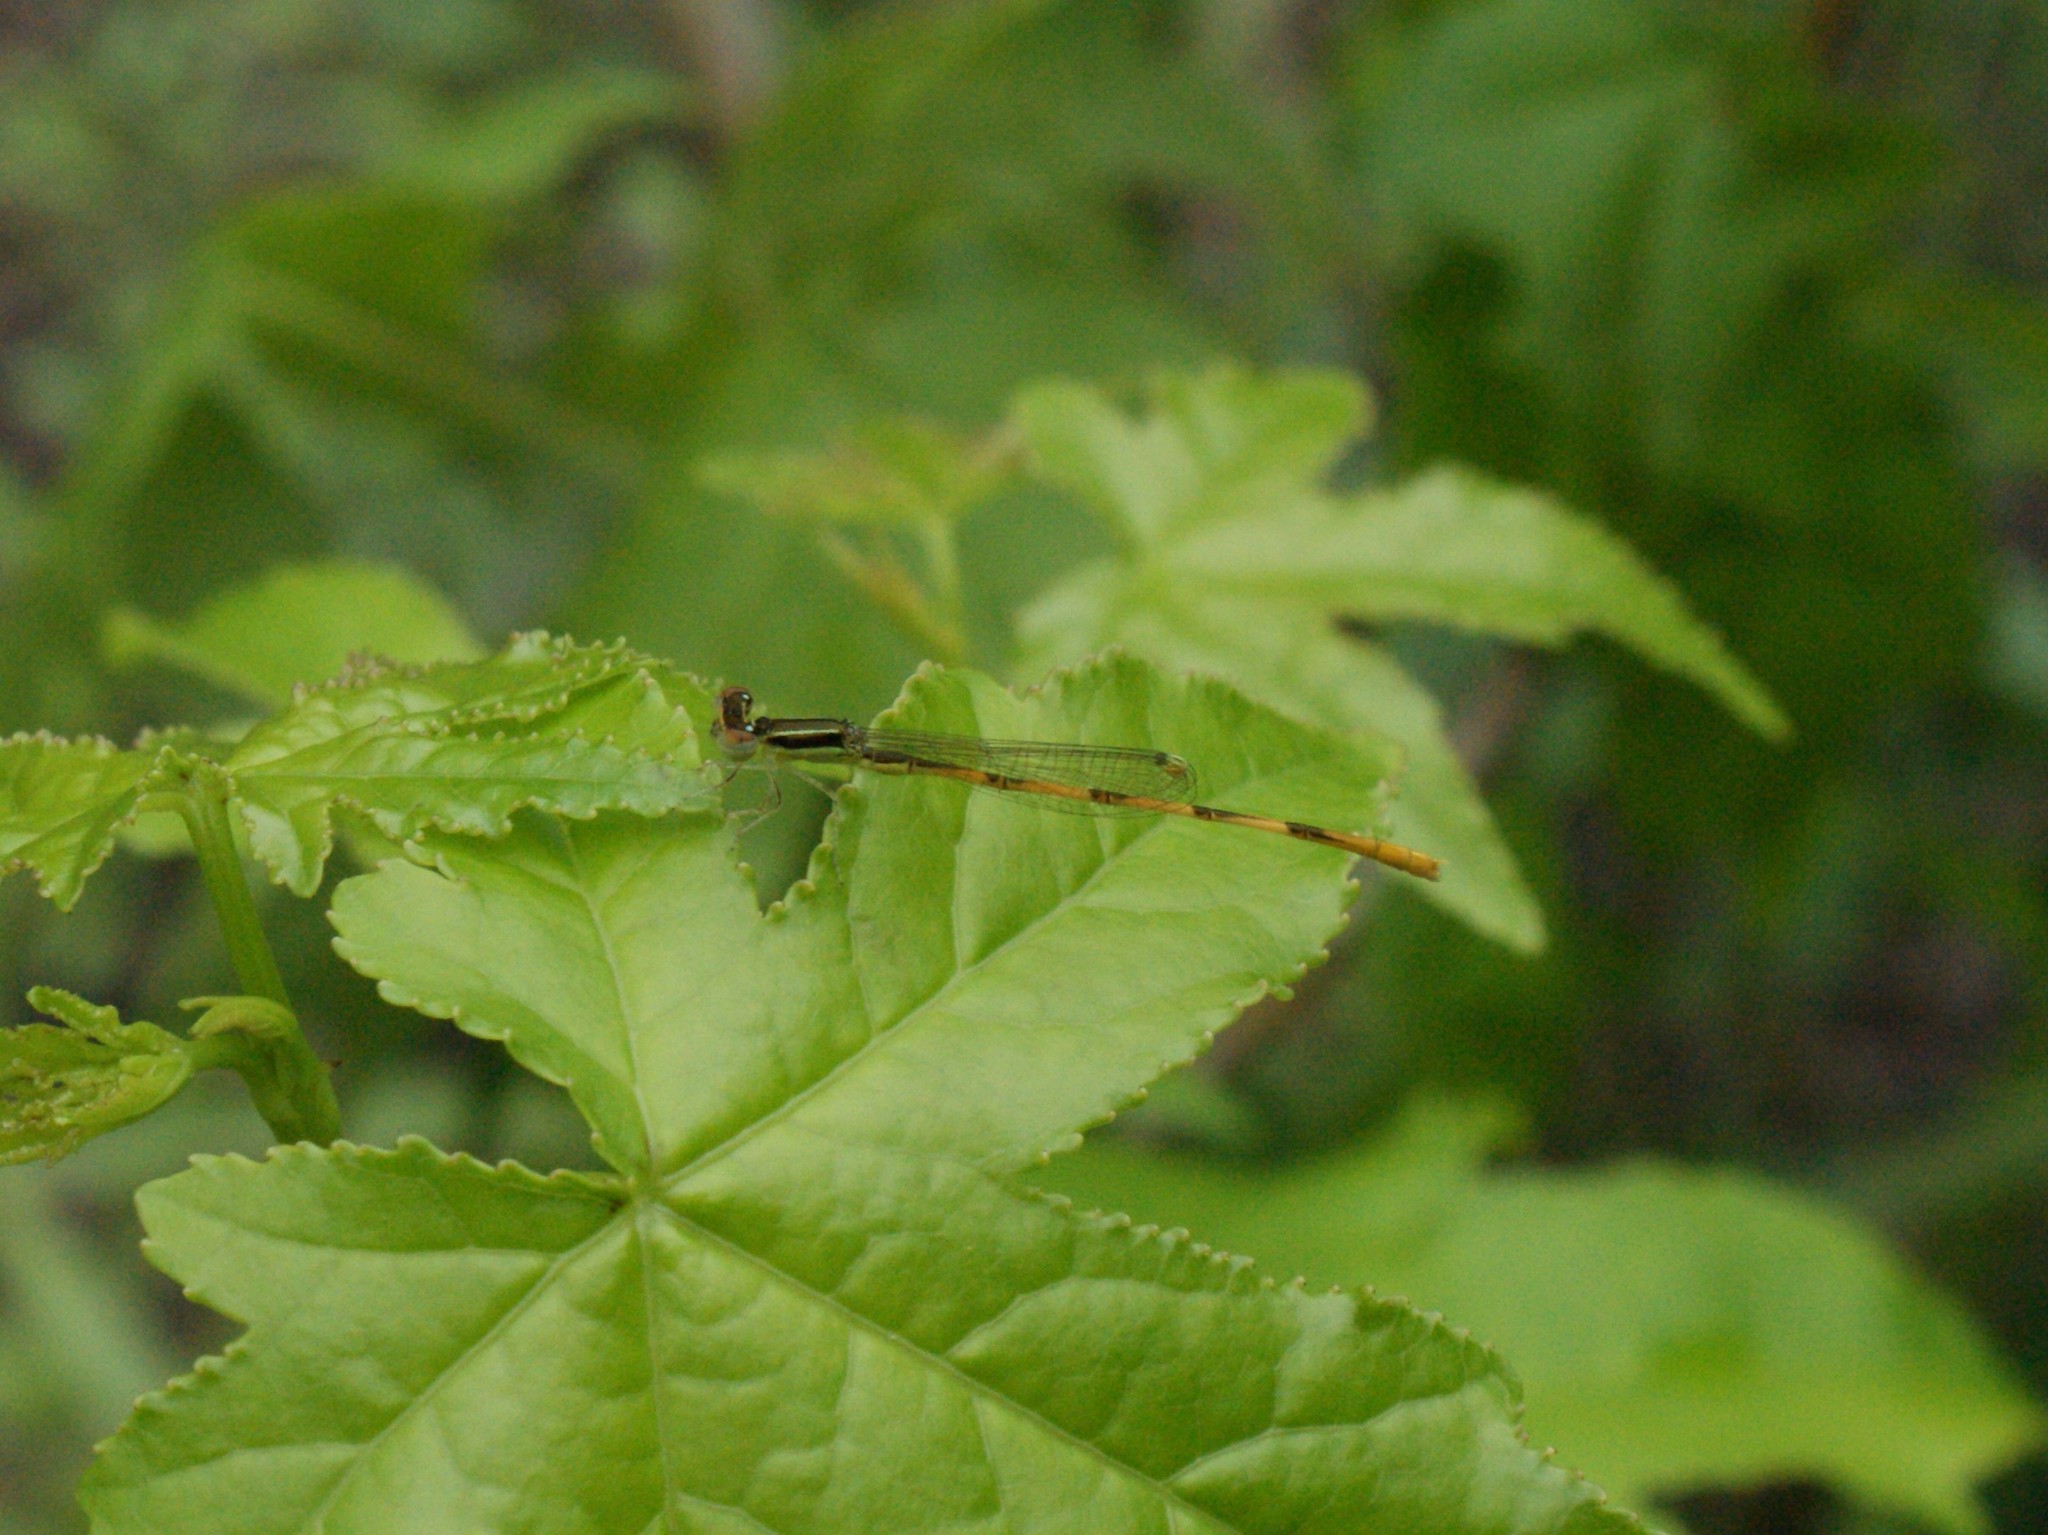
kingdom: Animalia
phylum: Arthropoda
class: Insecta
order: Odonata
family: Coenagrionidae
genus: Ischnura
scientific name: Ischnura hastata
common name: Citrine forktail
